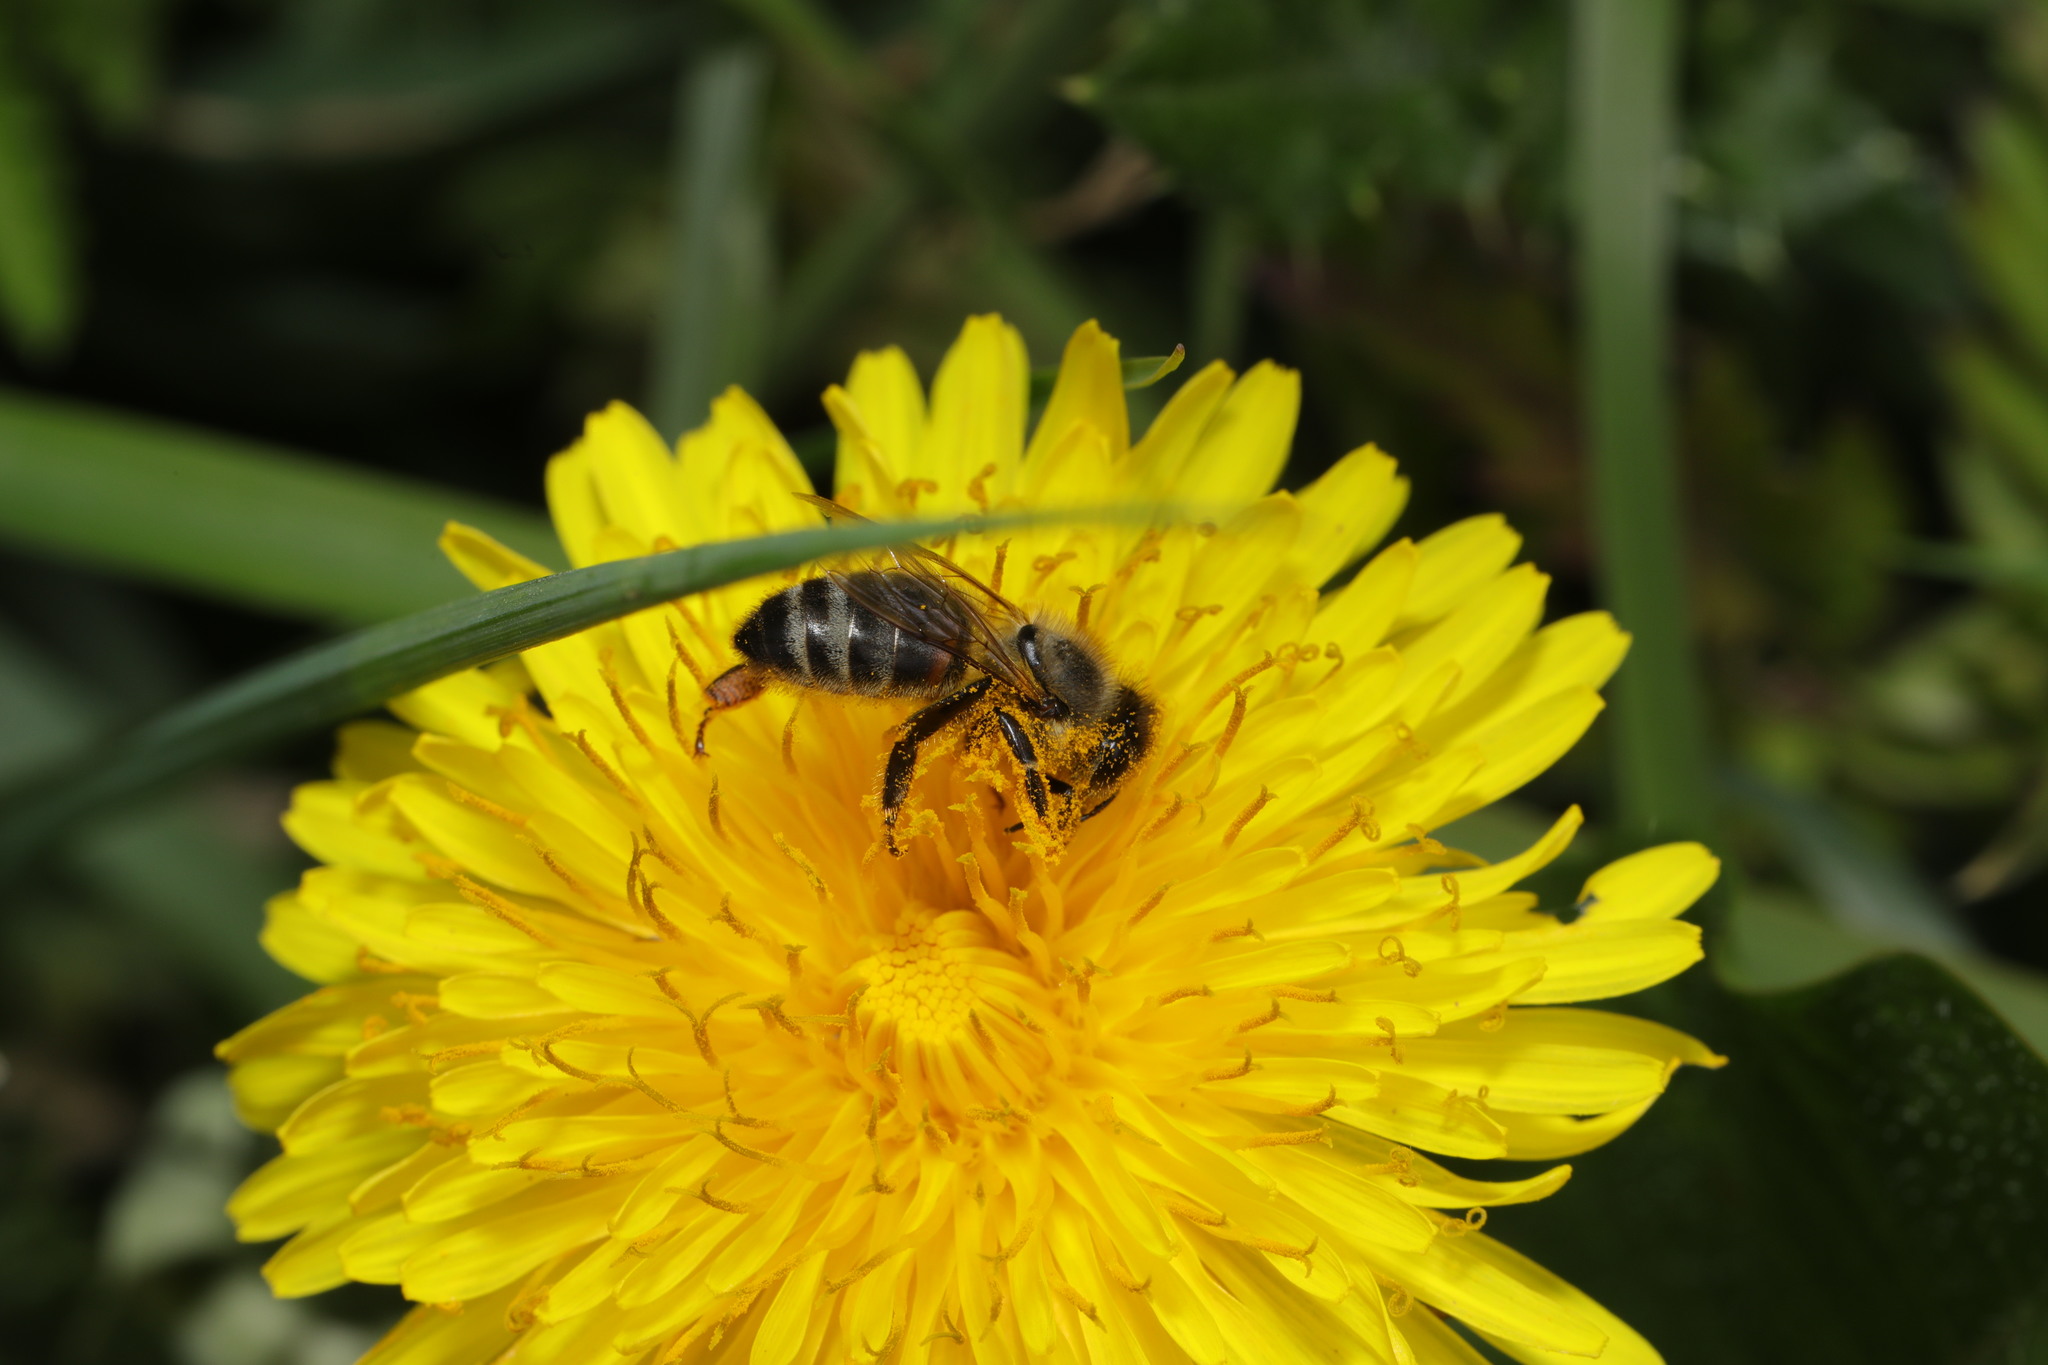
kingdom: Animalia
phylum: Arthropoda
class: Insecta
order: Hymenoptera
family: Apidae
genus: Apis
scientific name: Apis mellifera
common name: Honey bee
